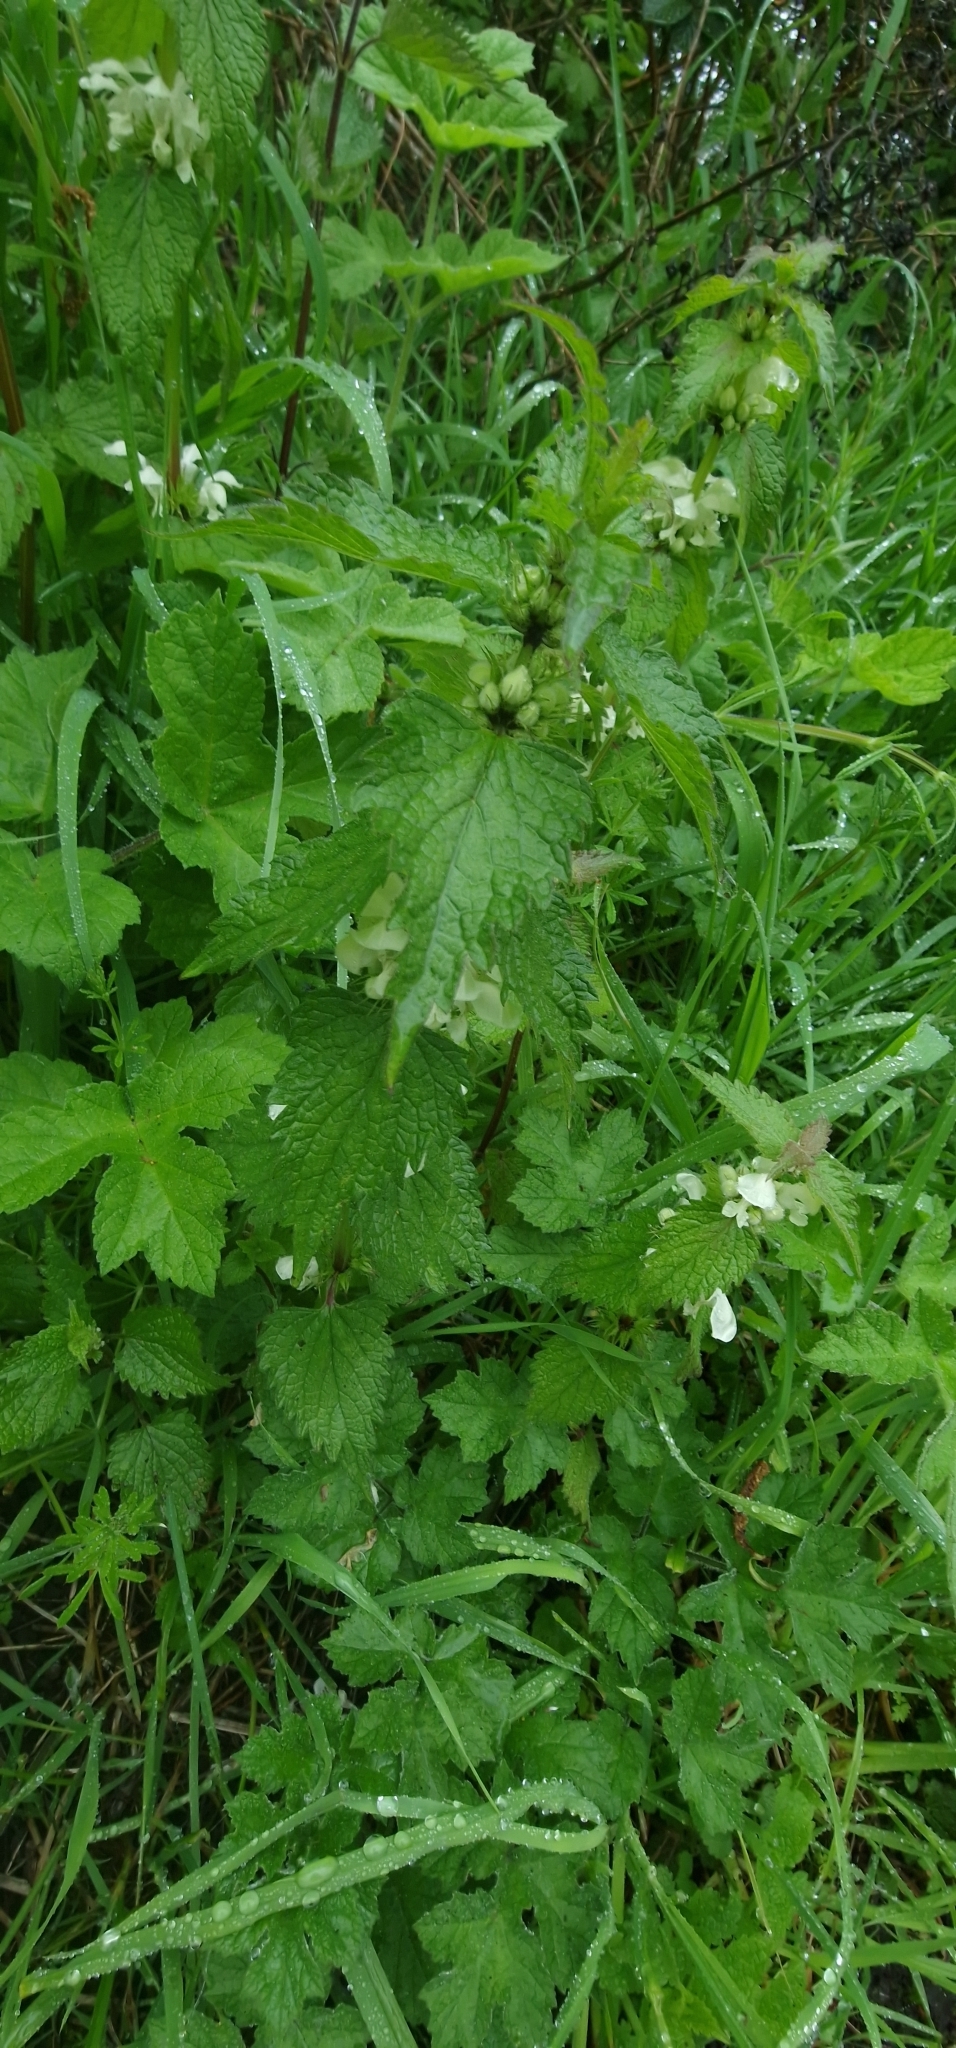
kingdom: Plantae
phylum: Tracheophyta
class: Magnoliopsida
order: Lamiales
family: Lamiaceae
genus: Lamium
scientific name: Lamium album
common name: White dead-nettle
